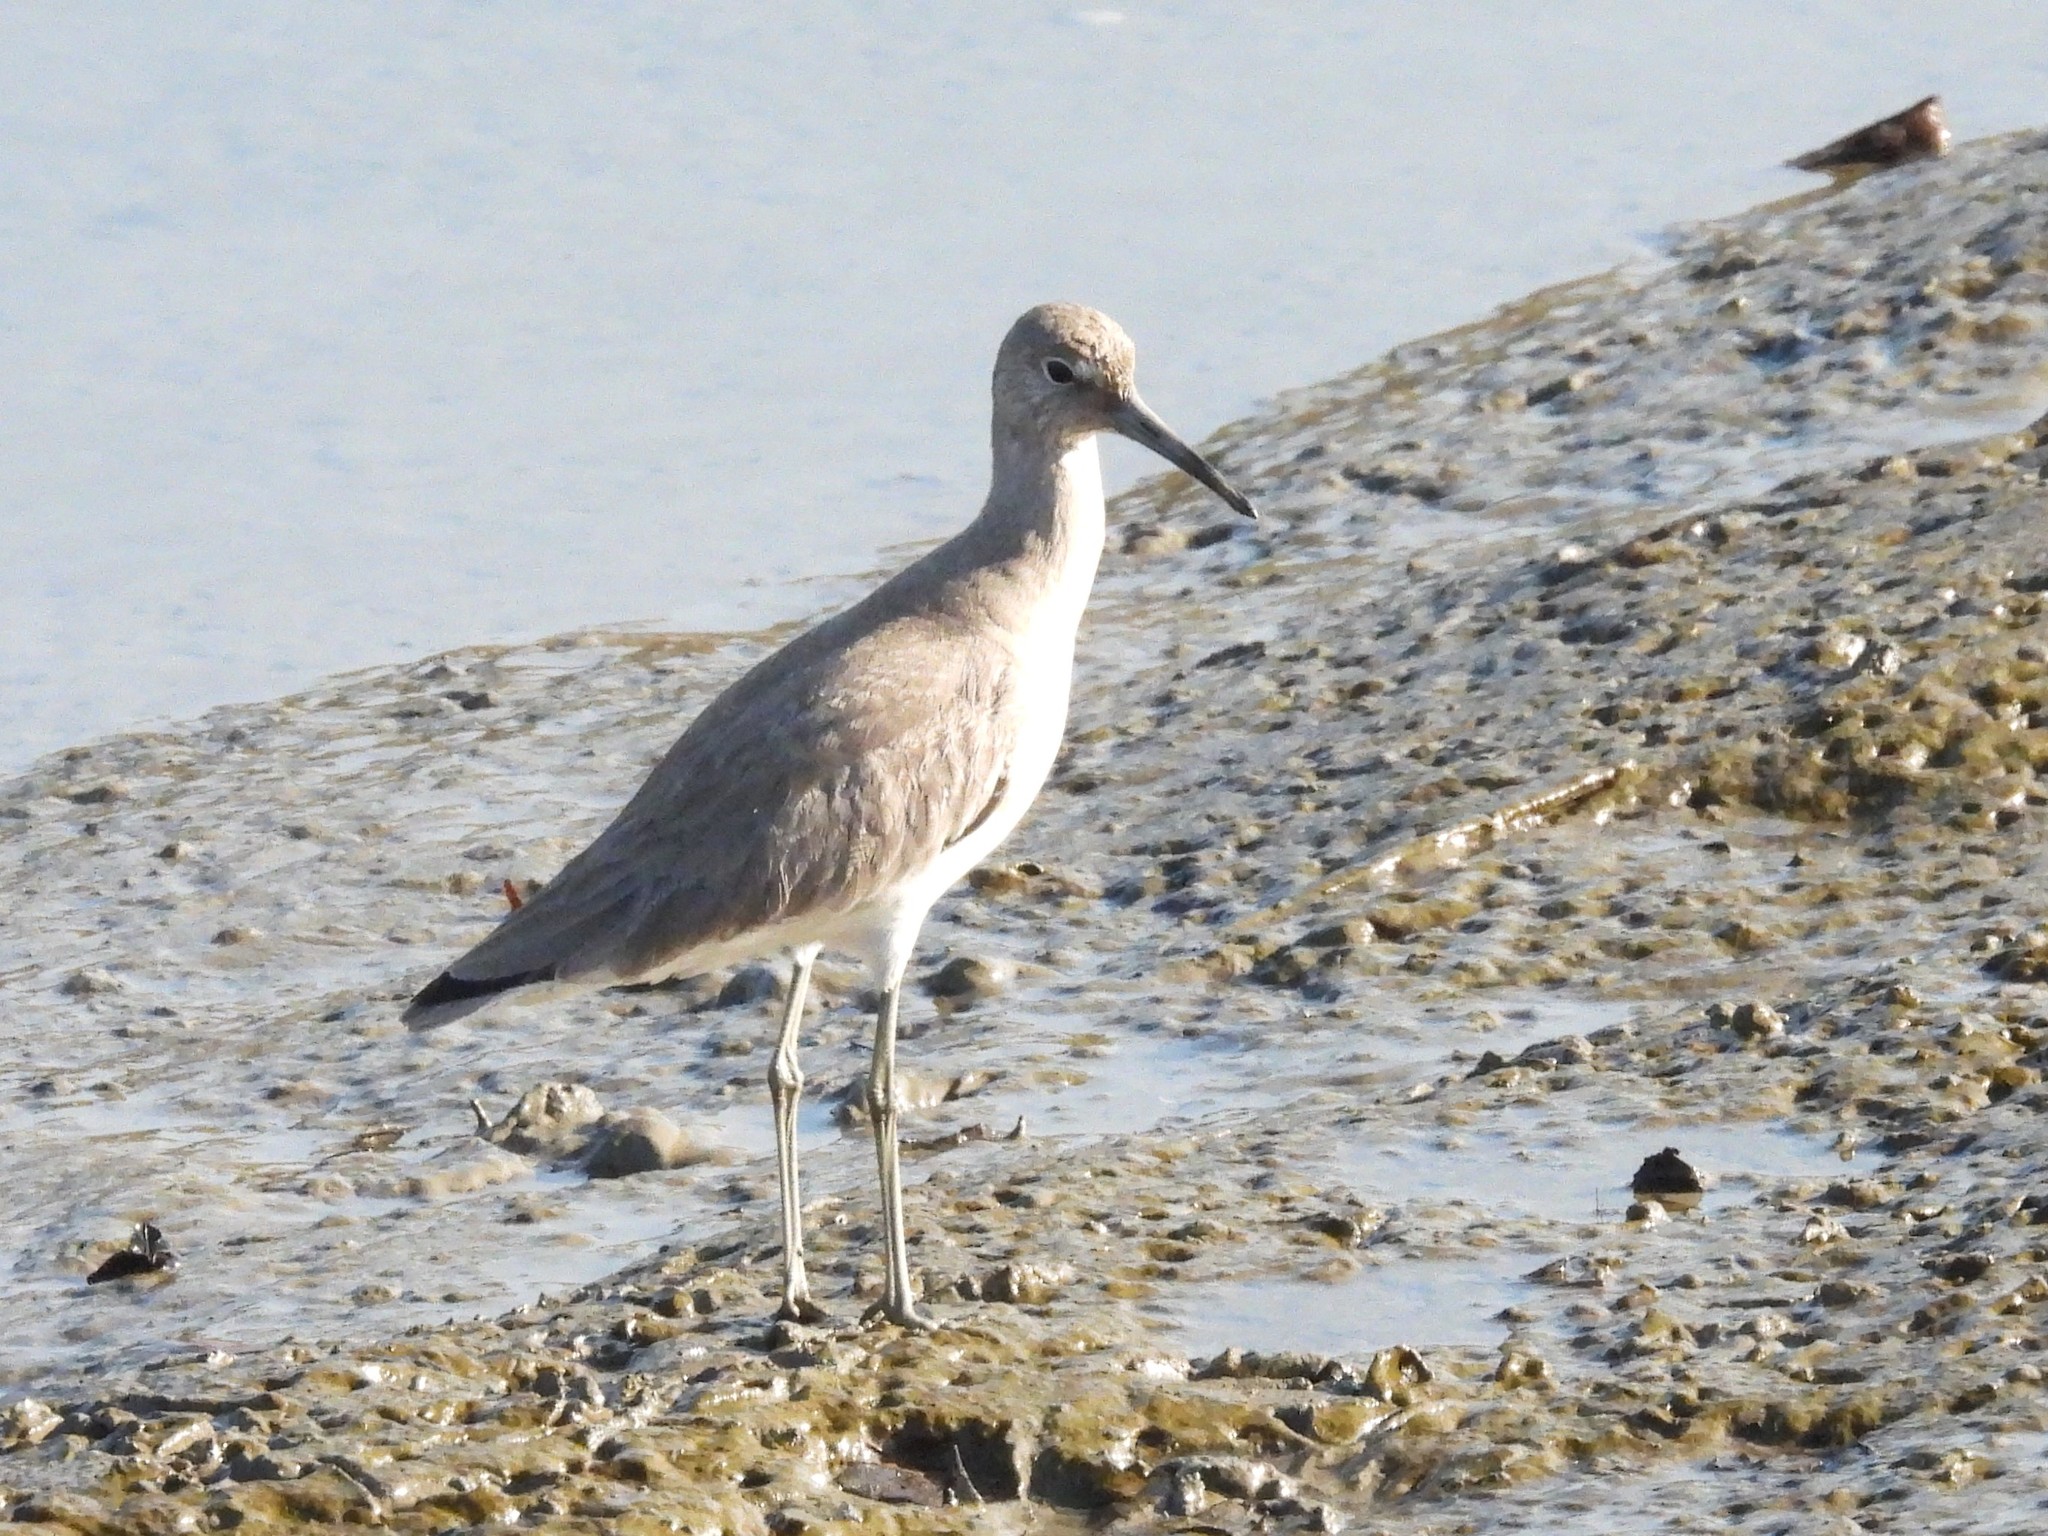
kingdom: Animalia
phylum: Chordata
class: Aves
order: Charadriiformes
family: Scolopacidae
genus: Tringa
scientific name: Tringa semipalmata
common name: Willet
